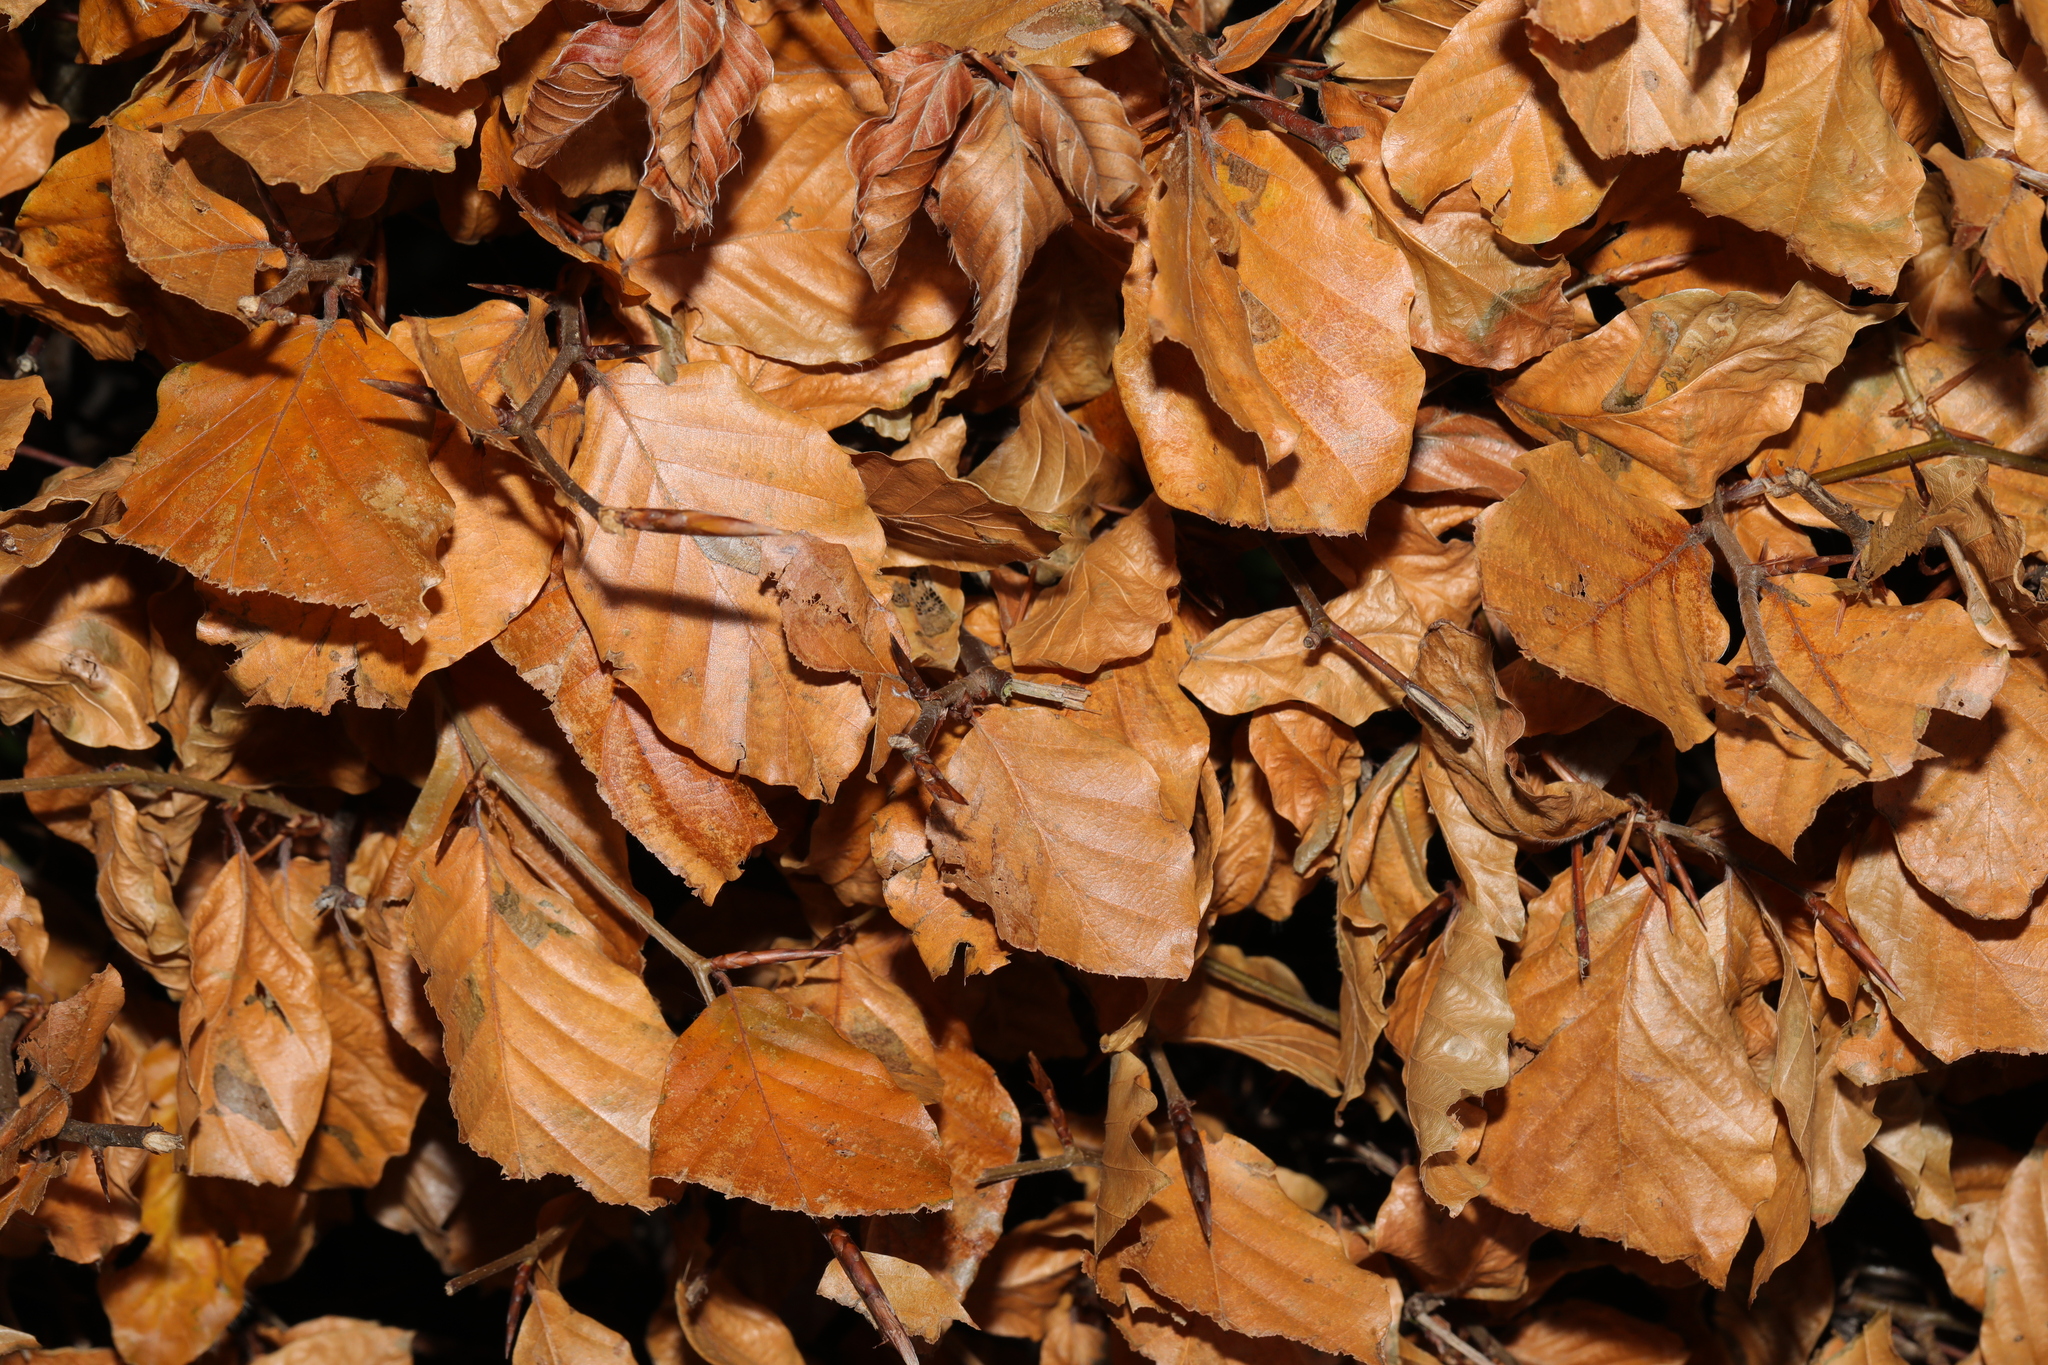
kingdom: Plantae
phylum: Tracheophyta
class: Magnoliopsida
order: Fagales
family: Fagaceae
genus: Fagus
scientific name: Fagus sylvatica
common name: Beech
